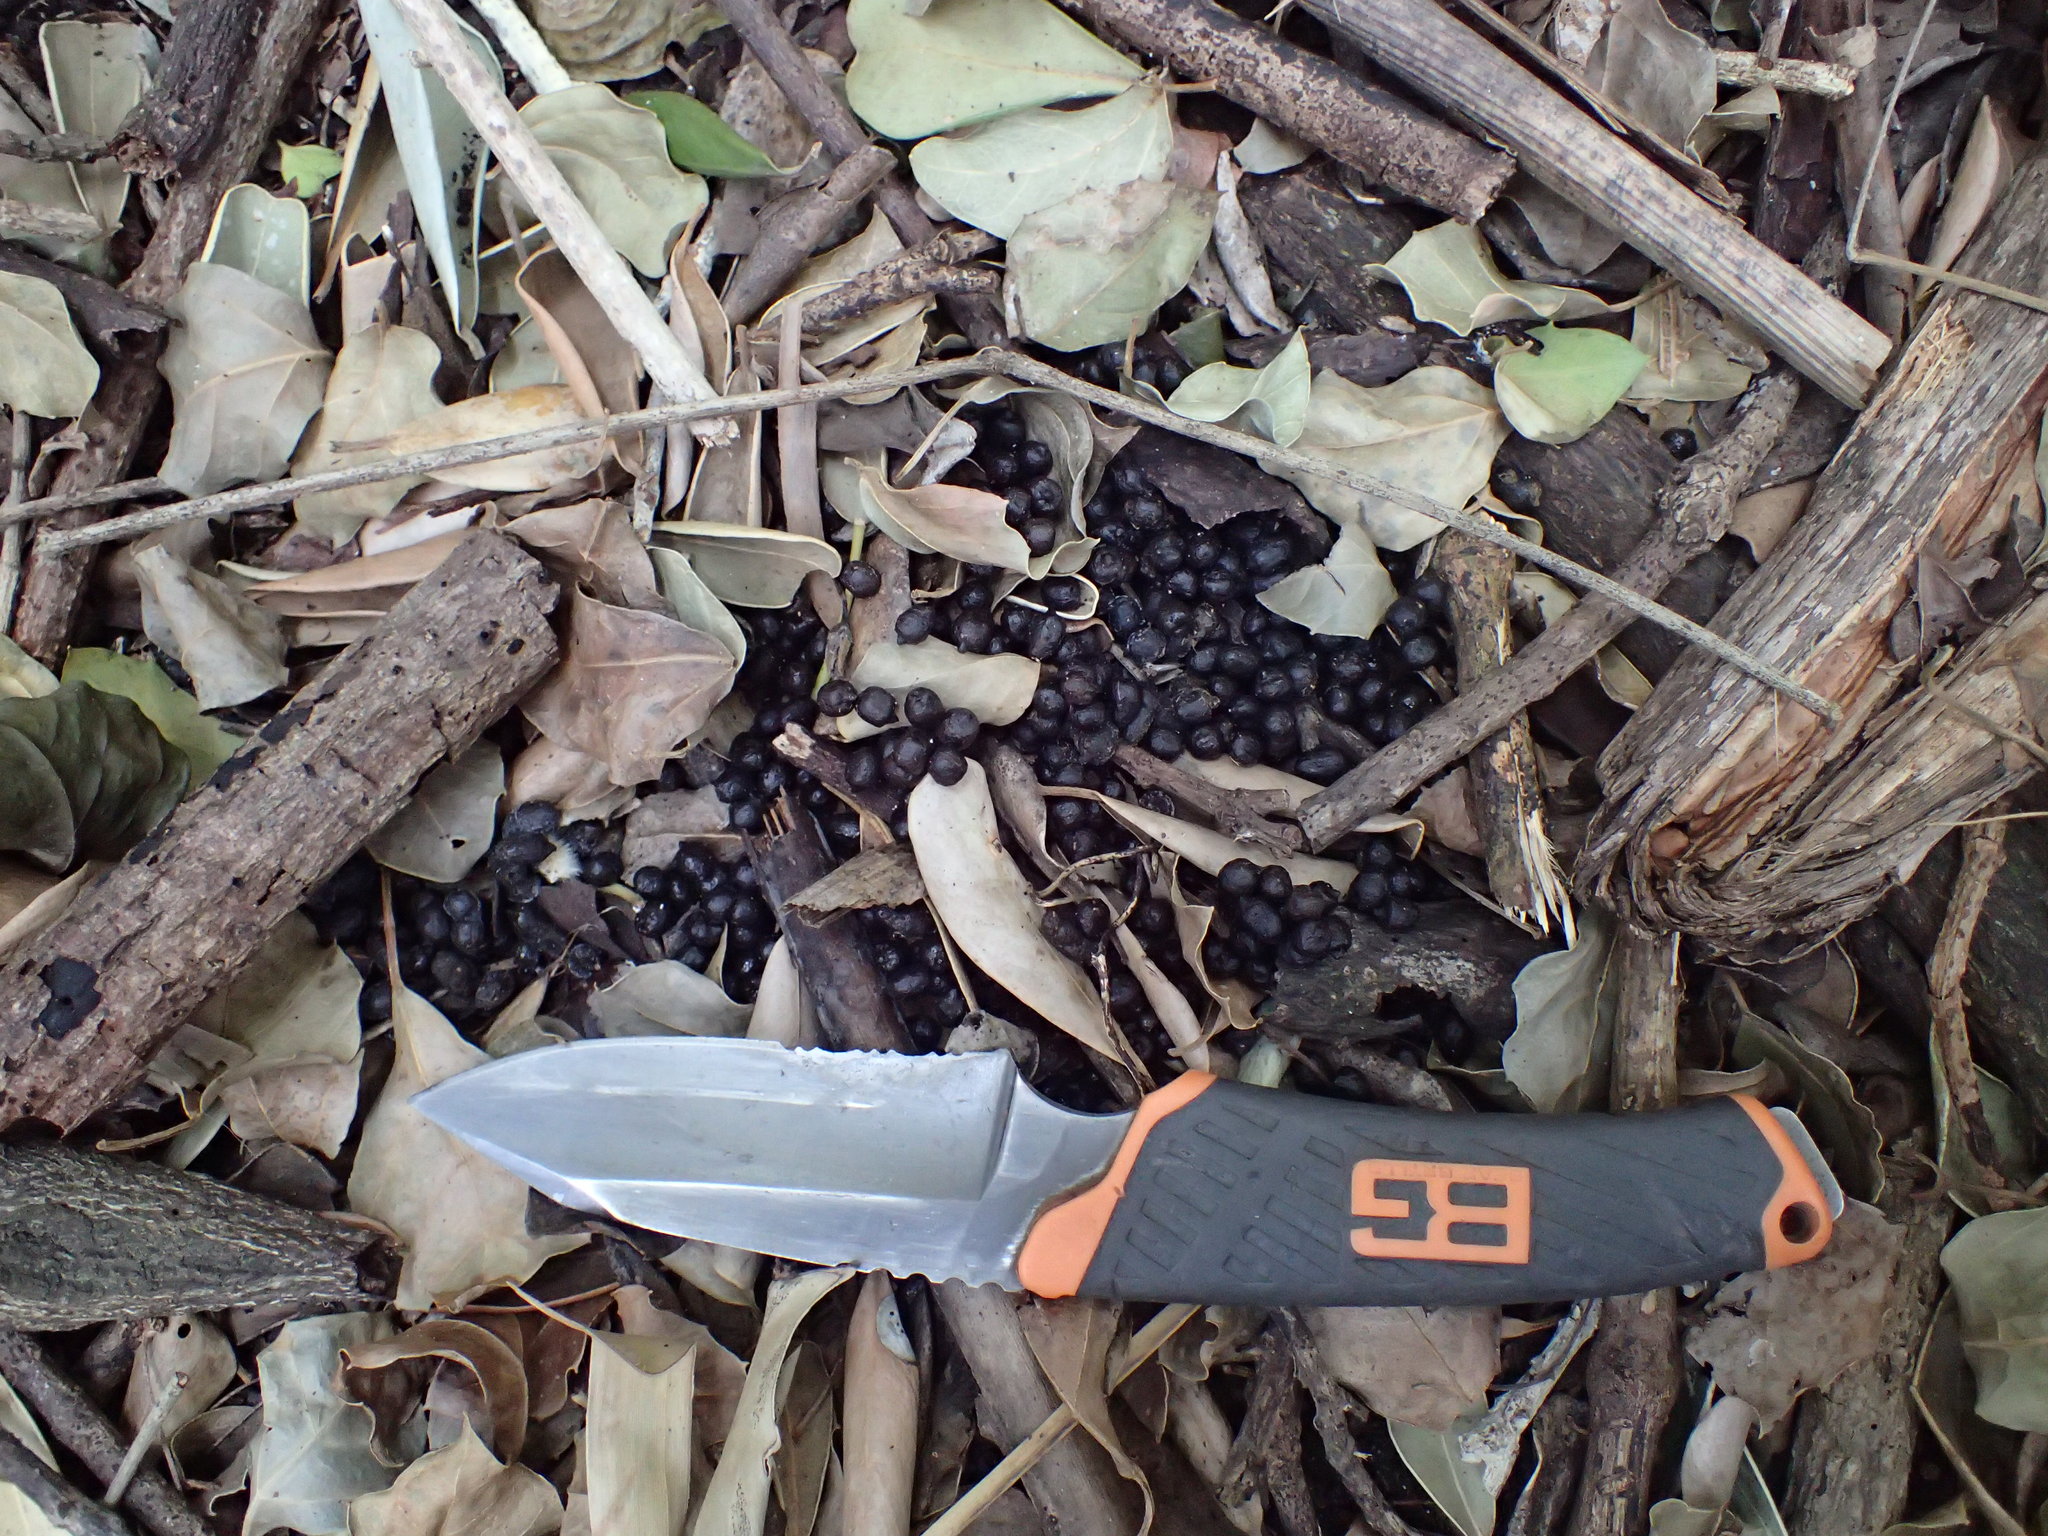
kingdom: Animalia
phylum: Chordata
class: Mammalia
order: Artiodactyla
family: Bovidae
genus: Philantomba
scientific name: Philantomba monticola
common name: Blue duiker
